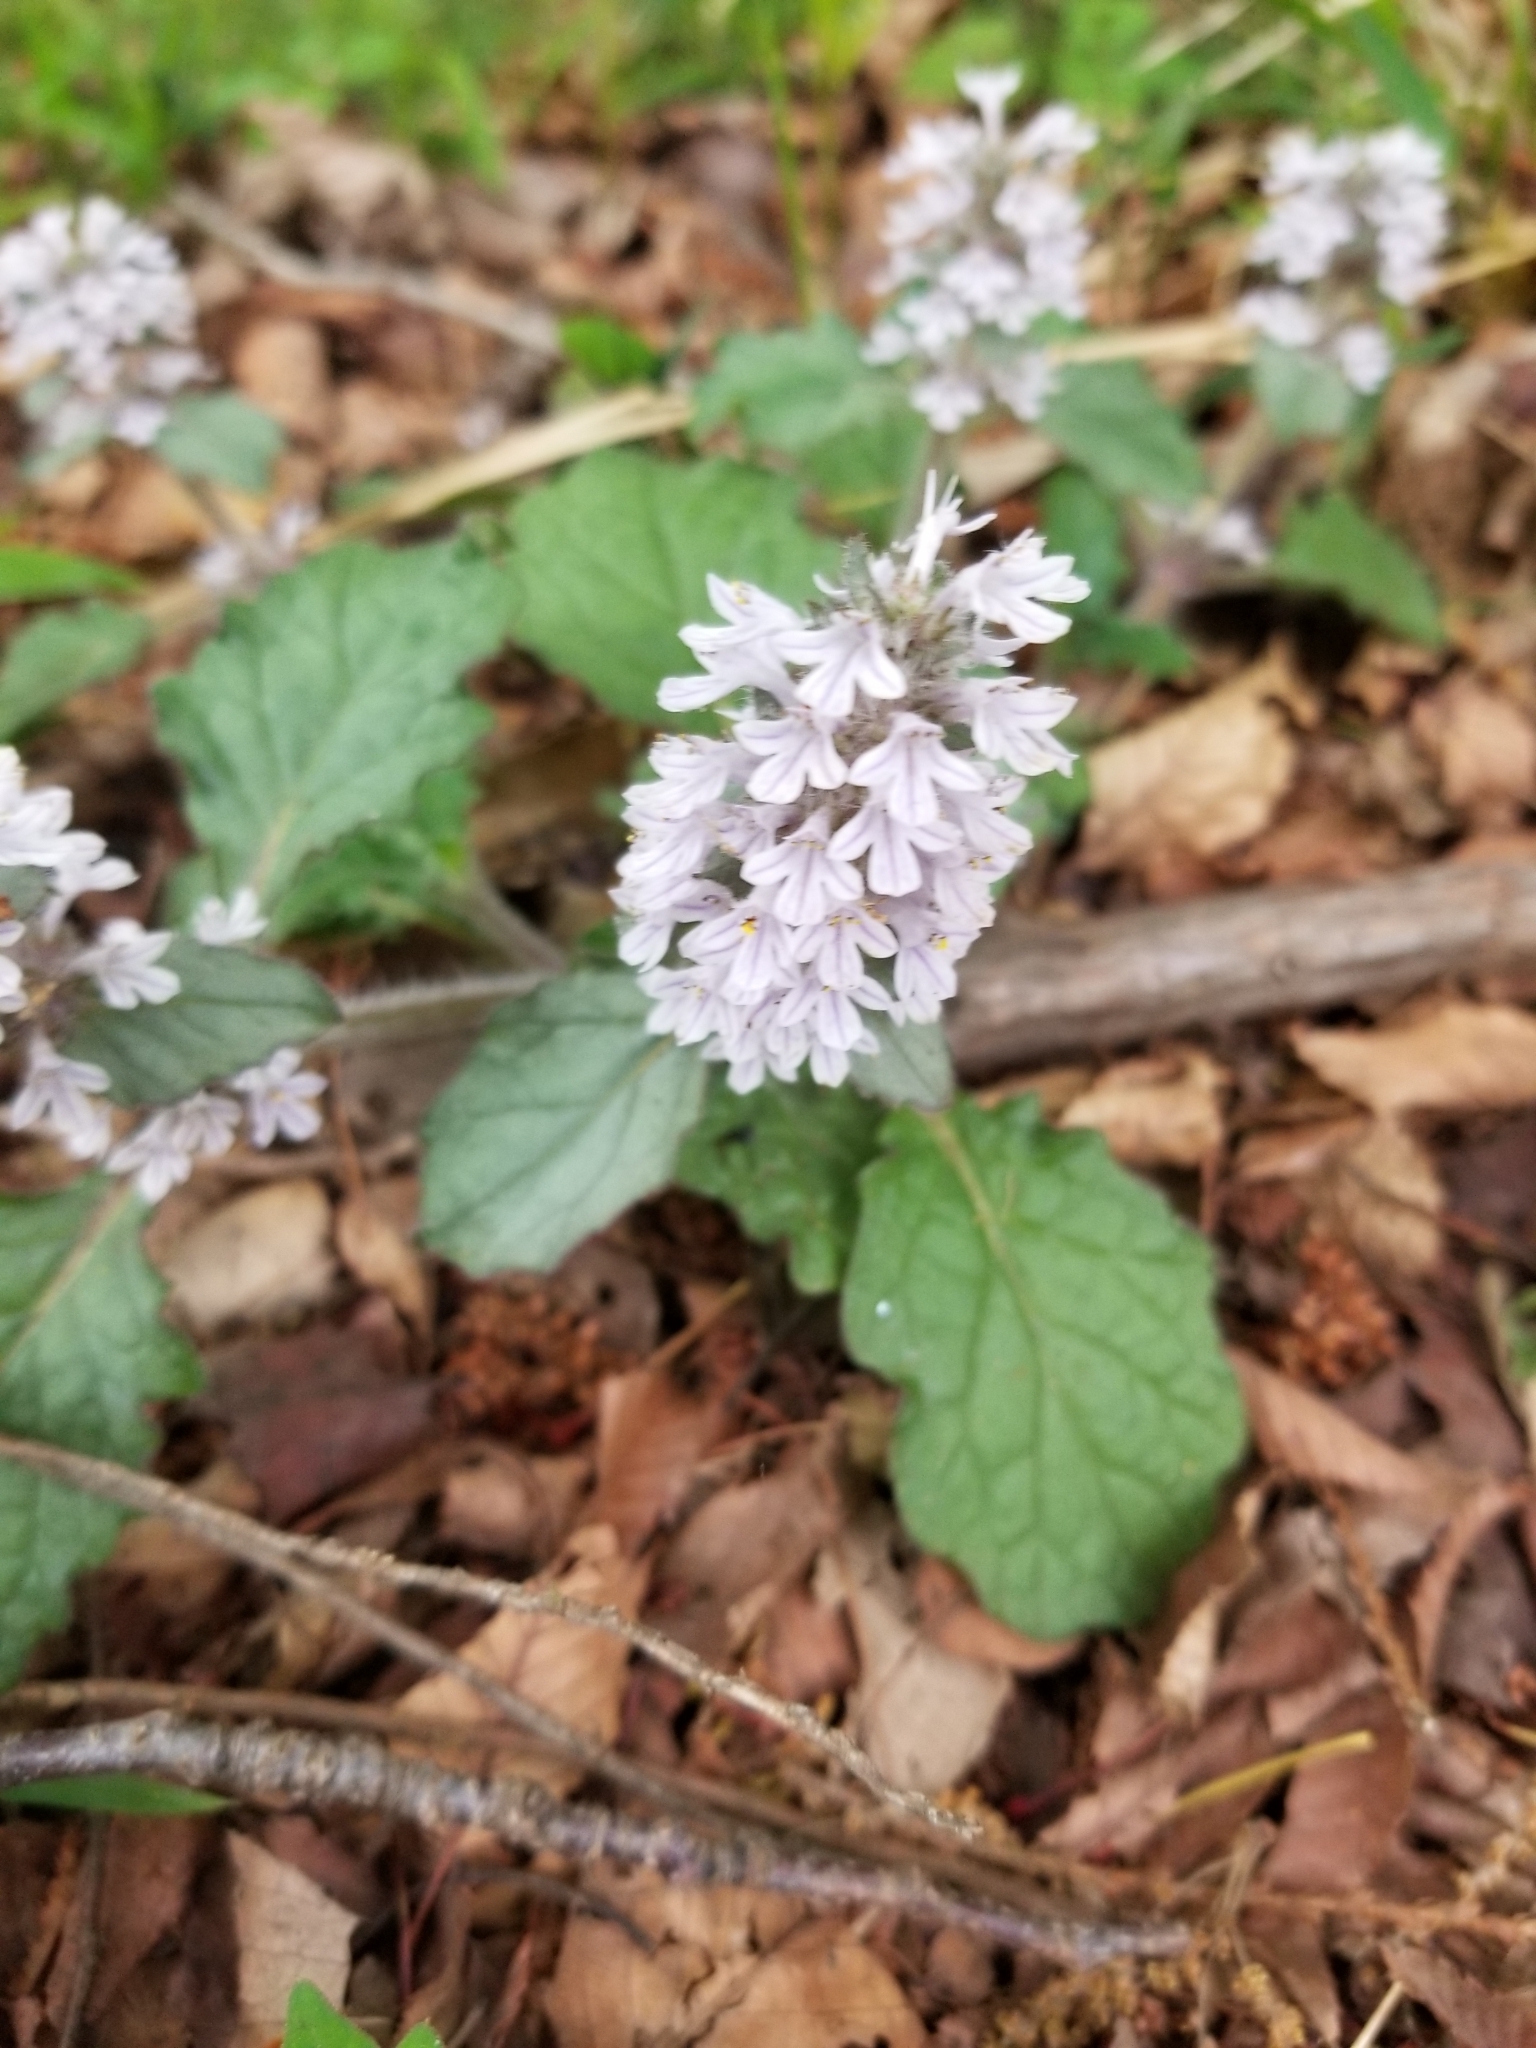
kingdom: Plantae
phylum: Tracheophyta
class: Magnoliopsida
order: Lamiales
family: Lamiaceae
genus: Ajuga
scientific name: Ajuga nipponensis
